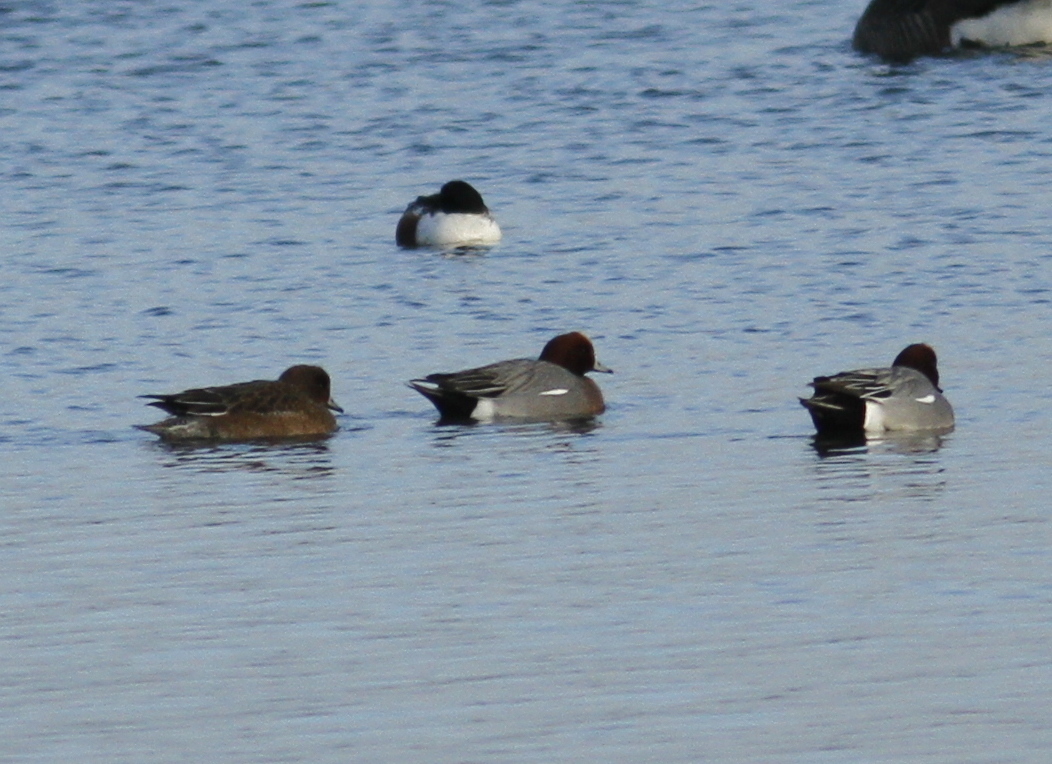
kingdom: Animalia
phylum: Chordata
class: Aves
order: Anseriformes
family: Anatidae
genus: Mareca
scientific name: Mareca penelope
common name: Eurasian wigeon
